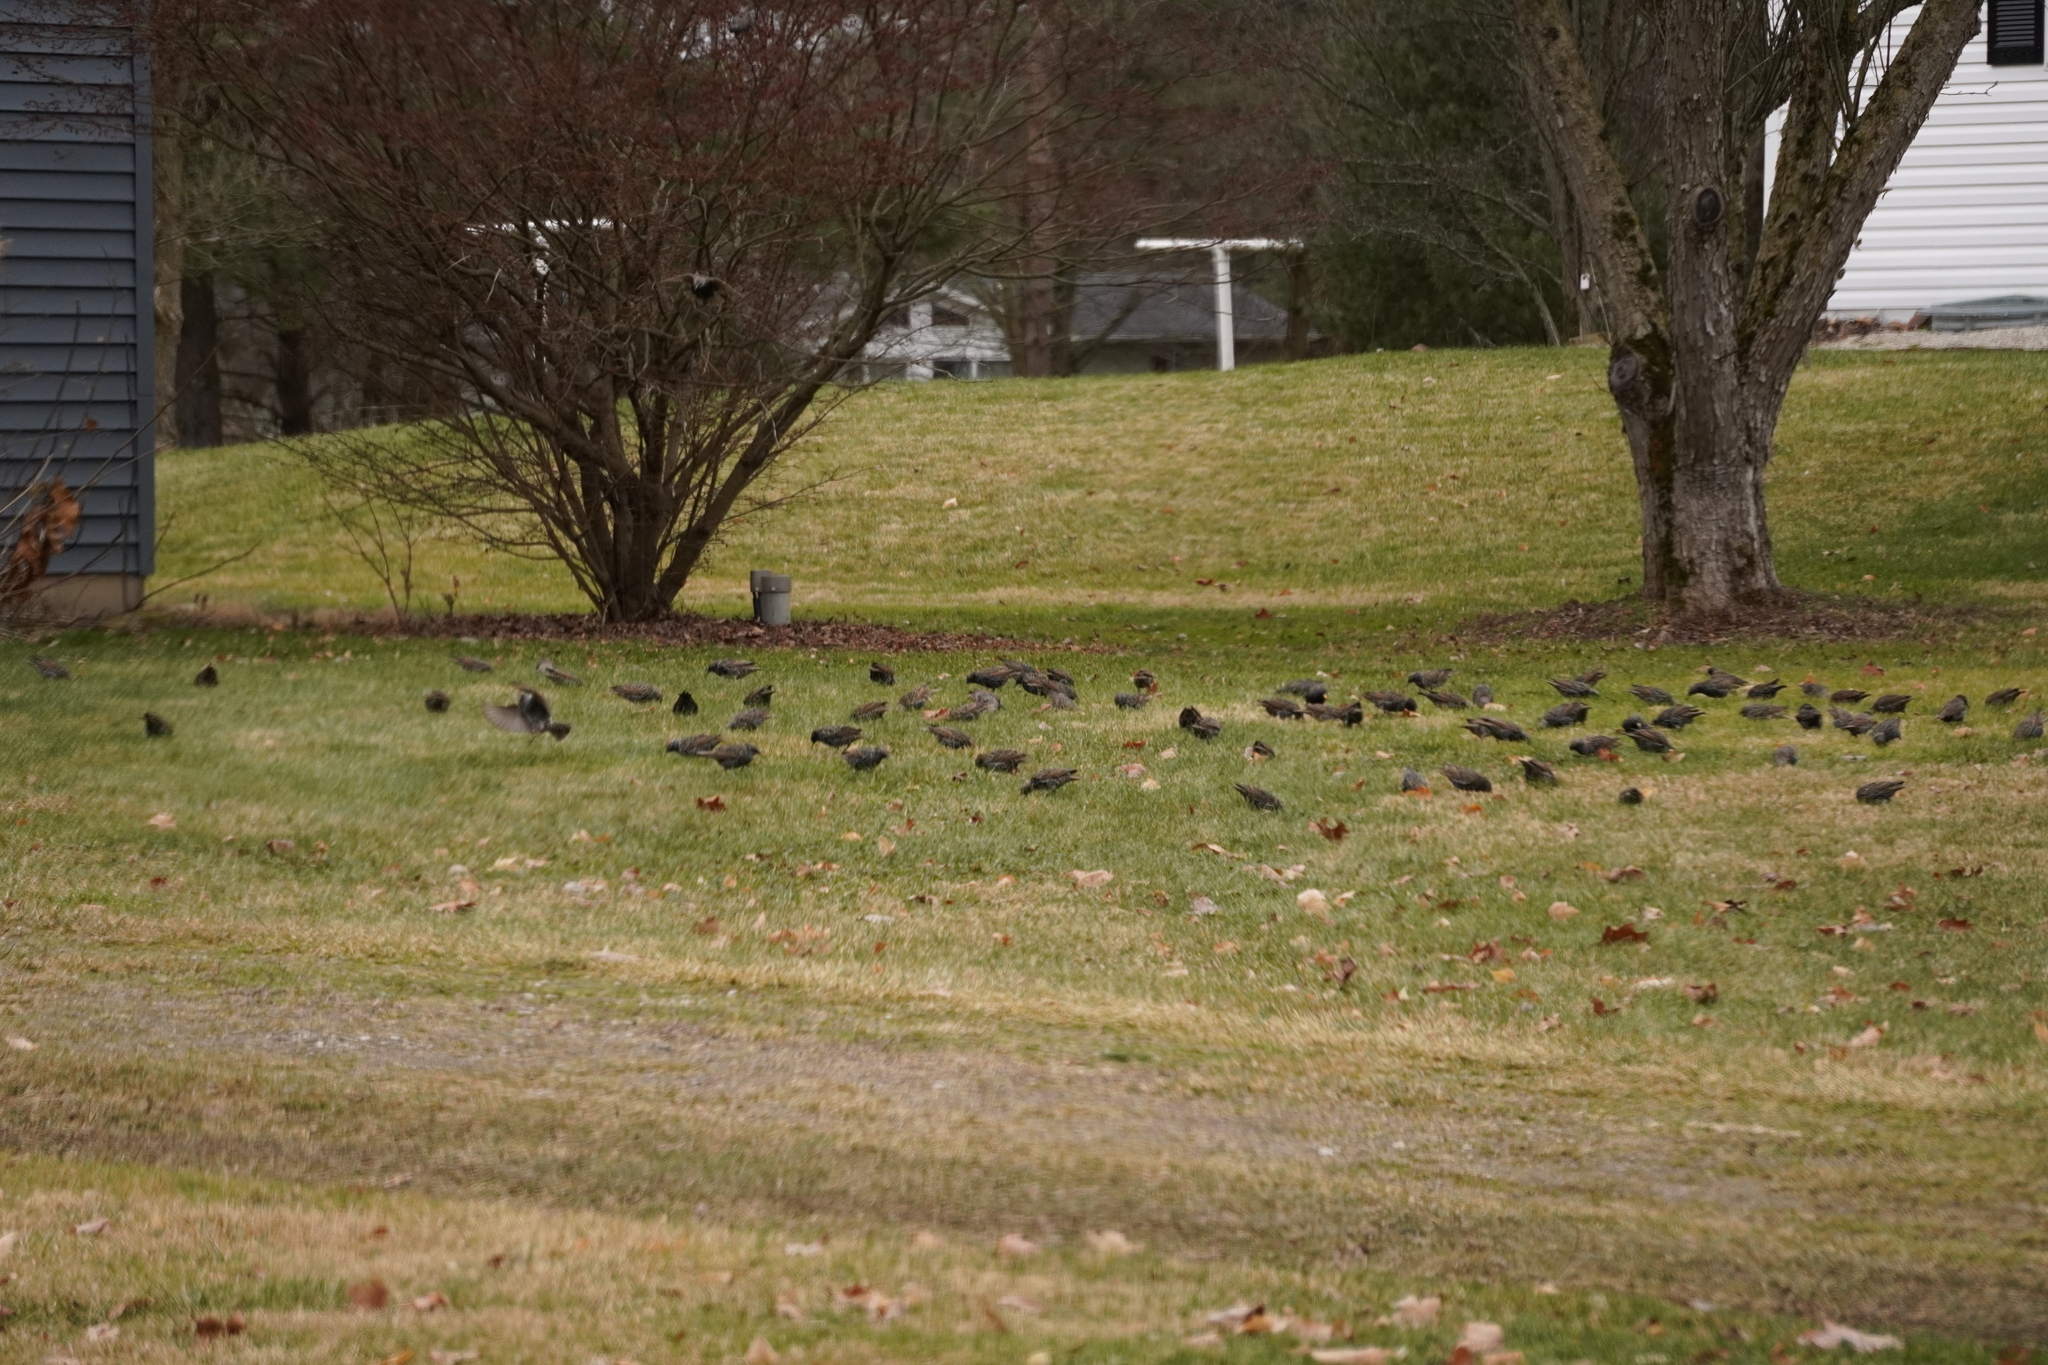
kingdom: Animalia
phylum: Chordata
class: Aves
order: Passeriformes
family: Sturnidae
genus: Sturnus
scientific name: Sturnus vulgaris
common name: Common starling
